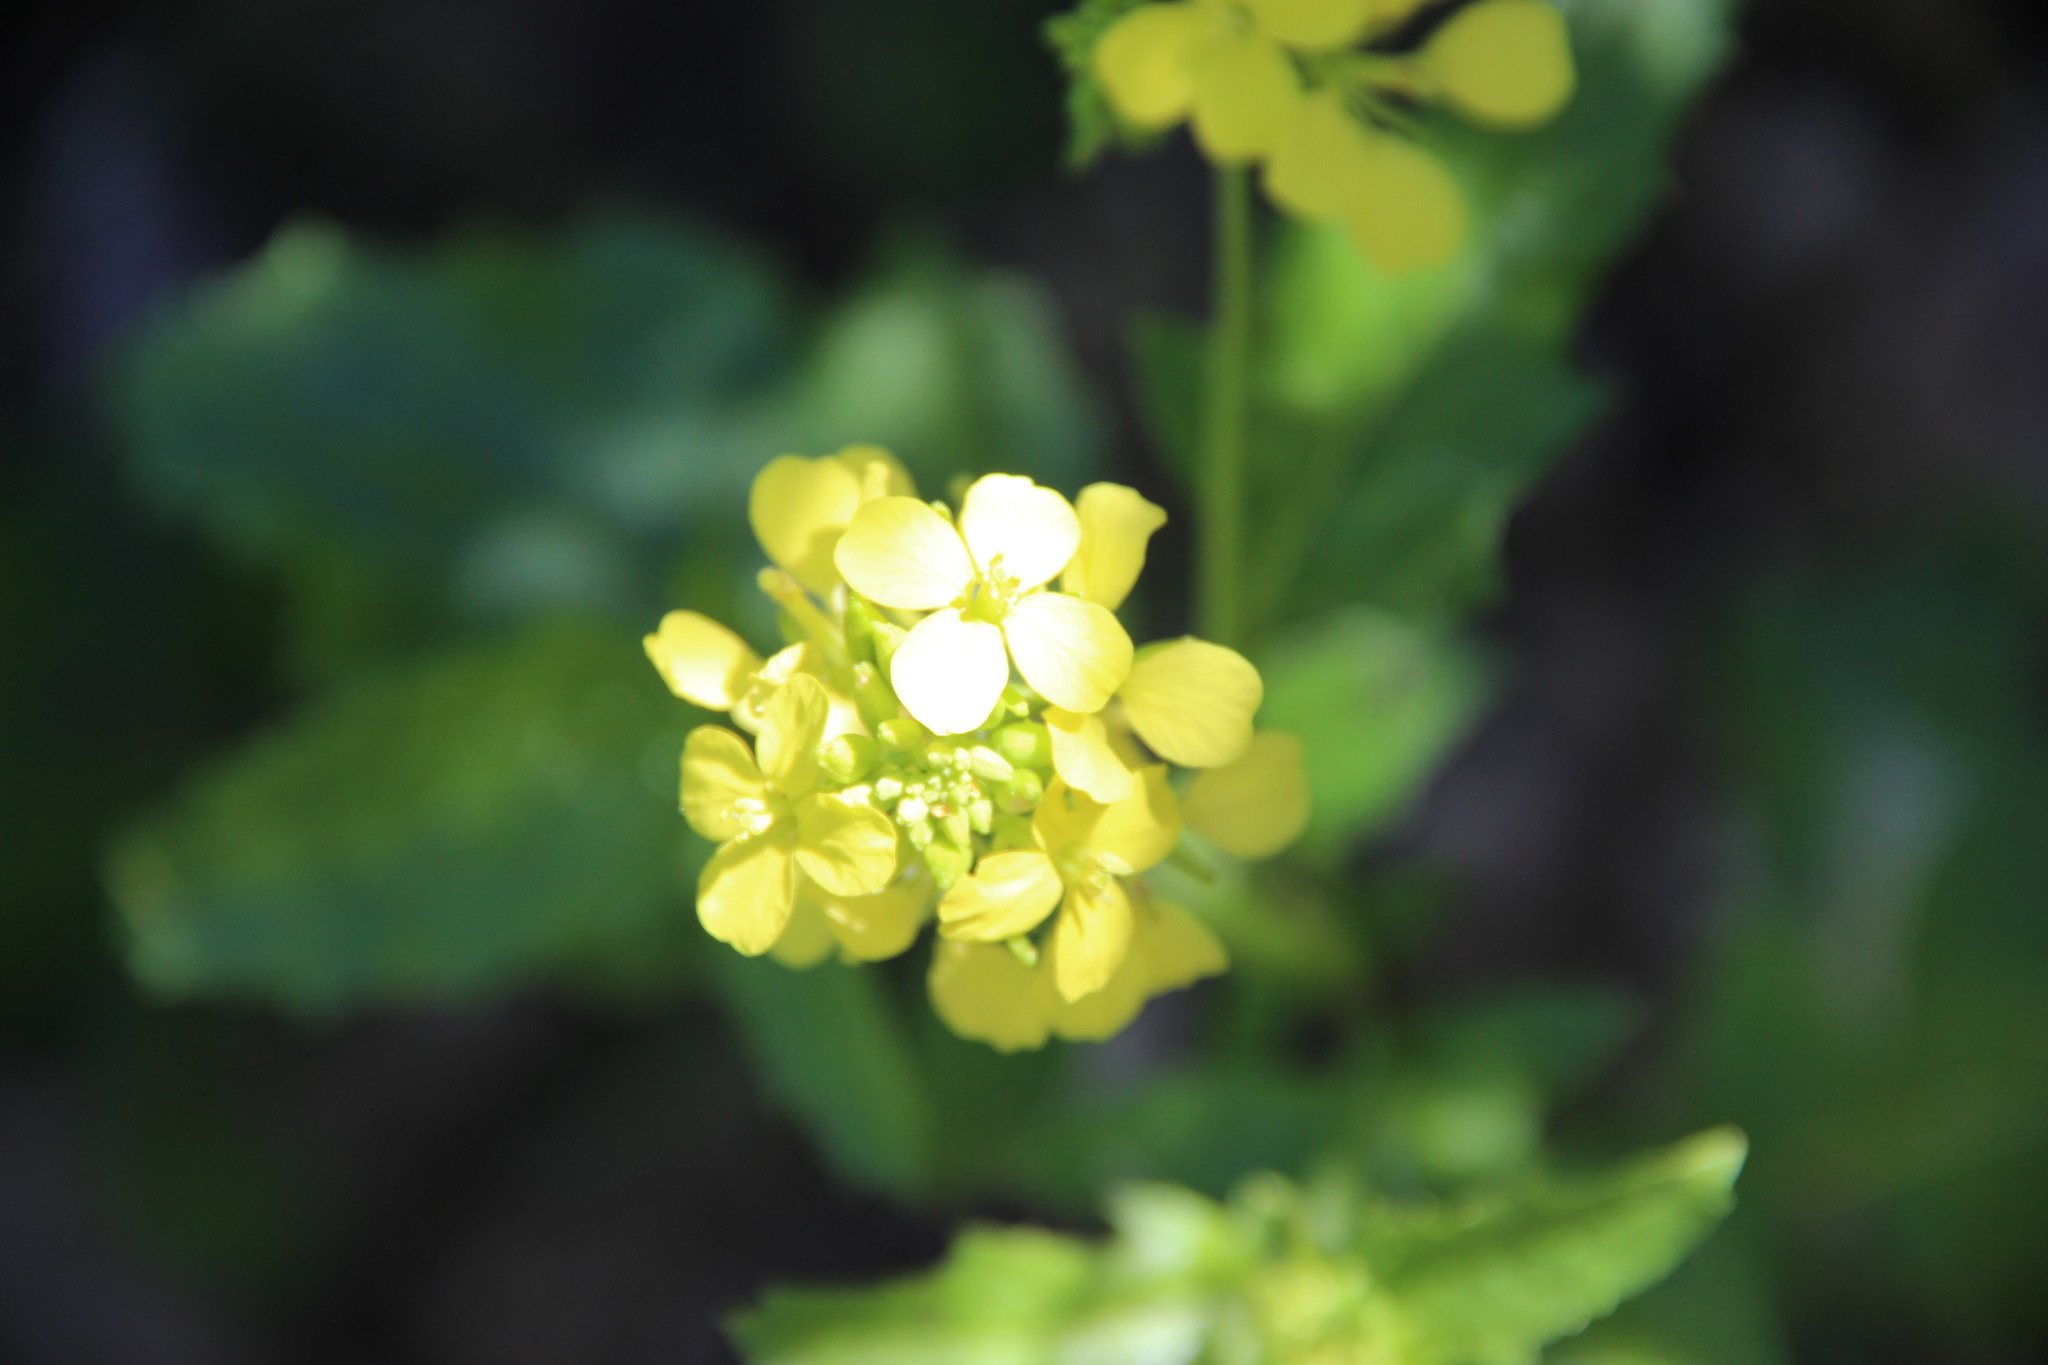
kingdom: Plantae
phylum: Tracheophyta
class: Magnoliopsida
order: Brassicales
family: Brassicaceae
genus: Sinapis
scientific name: Sinapis arvensis
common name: Charlock
